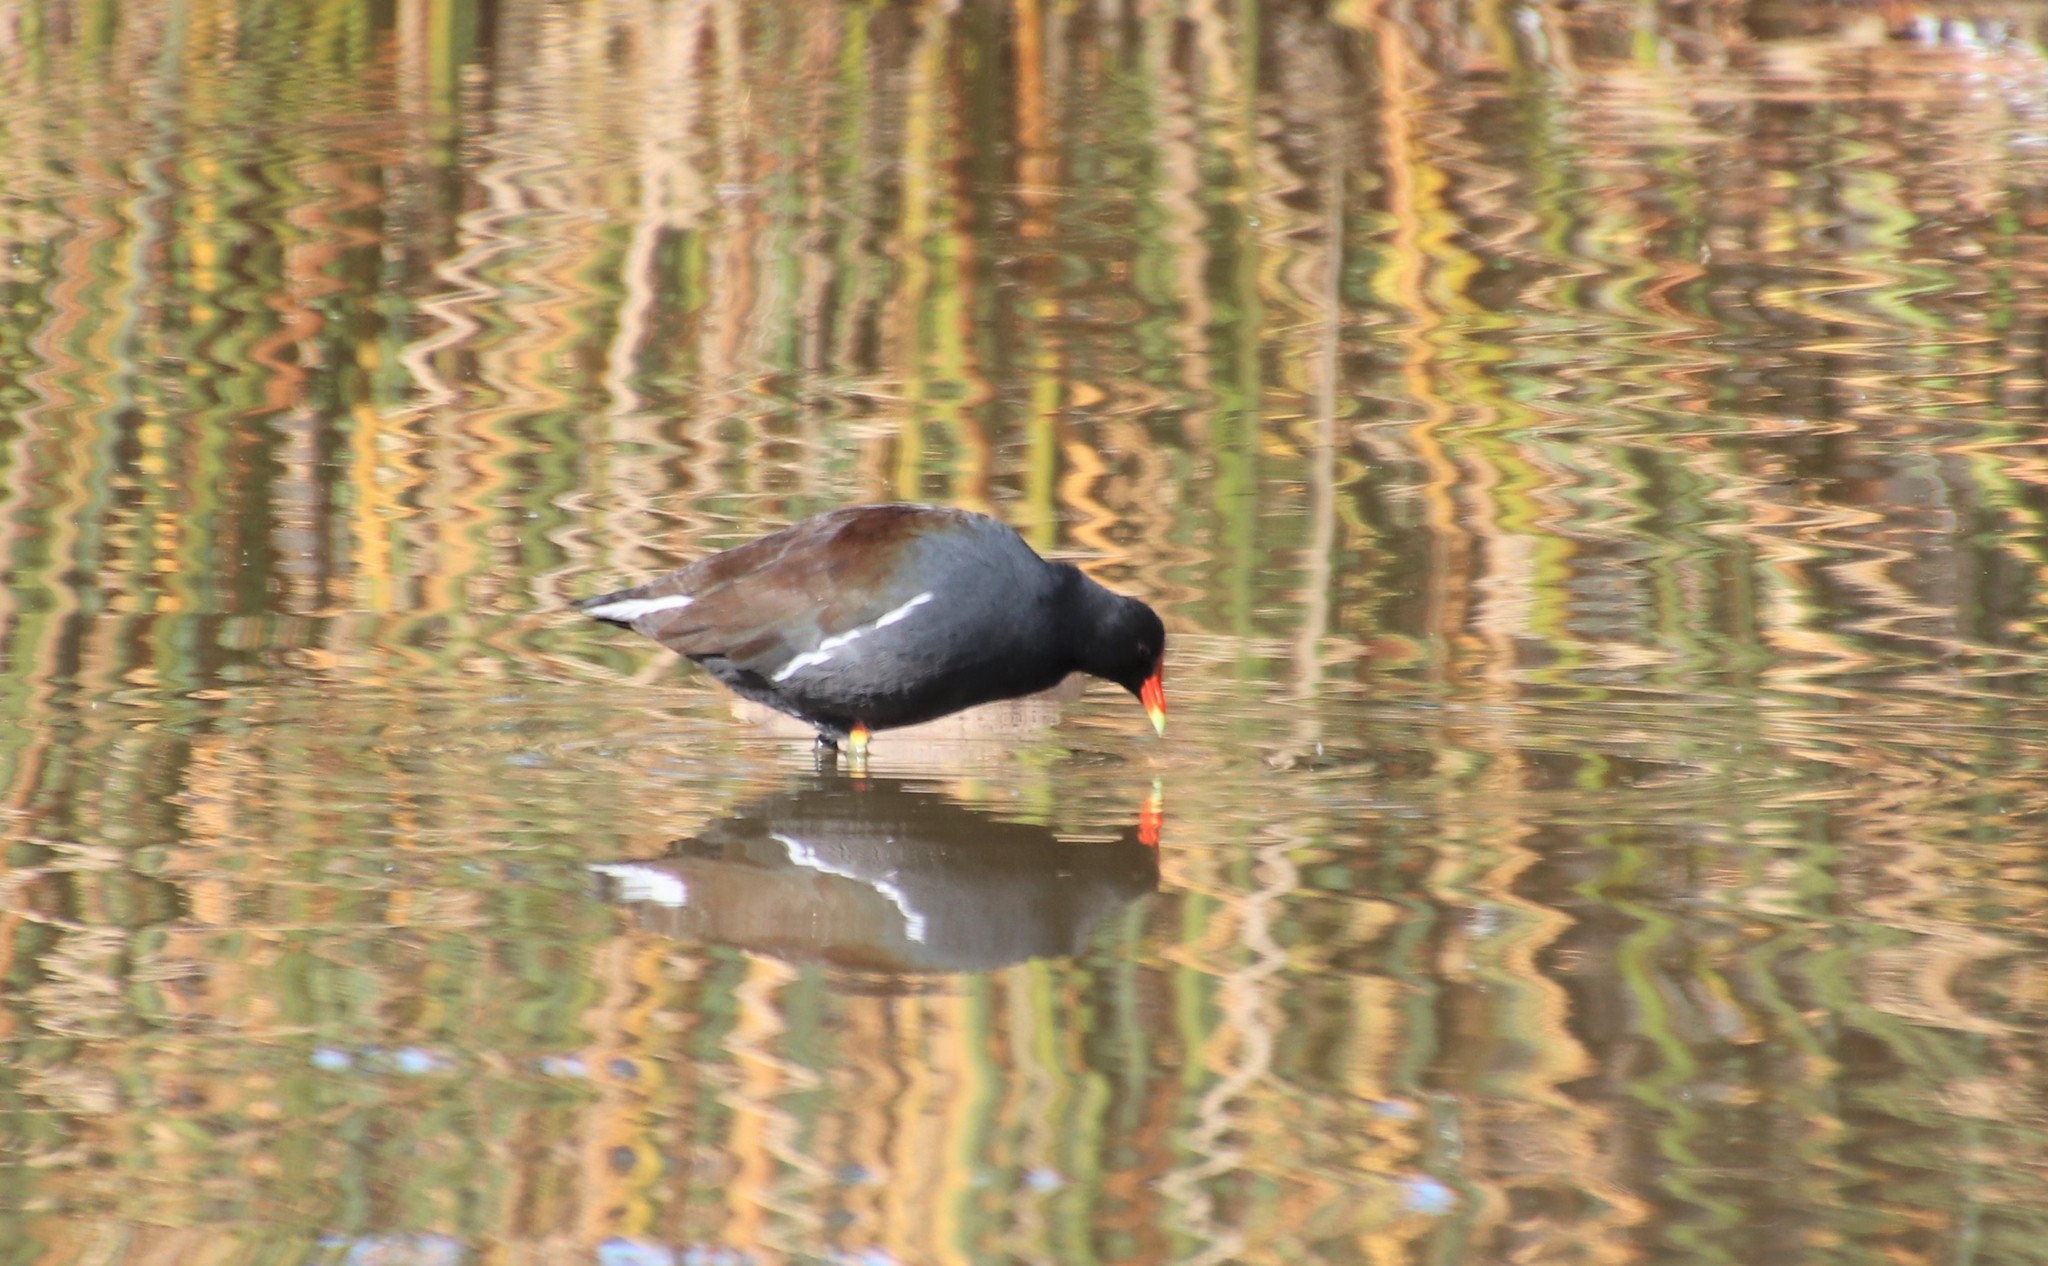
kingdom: Animalia
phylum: Chordata
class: Aves
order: Gruiformes
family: Rallidae
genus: Gallinula
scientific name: Gallinula chloropus
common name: Common moorhen
